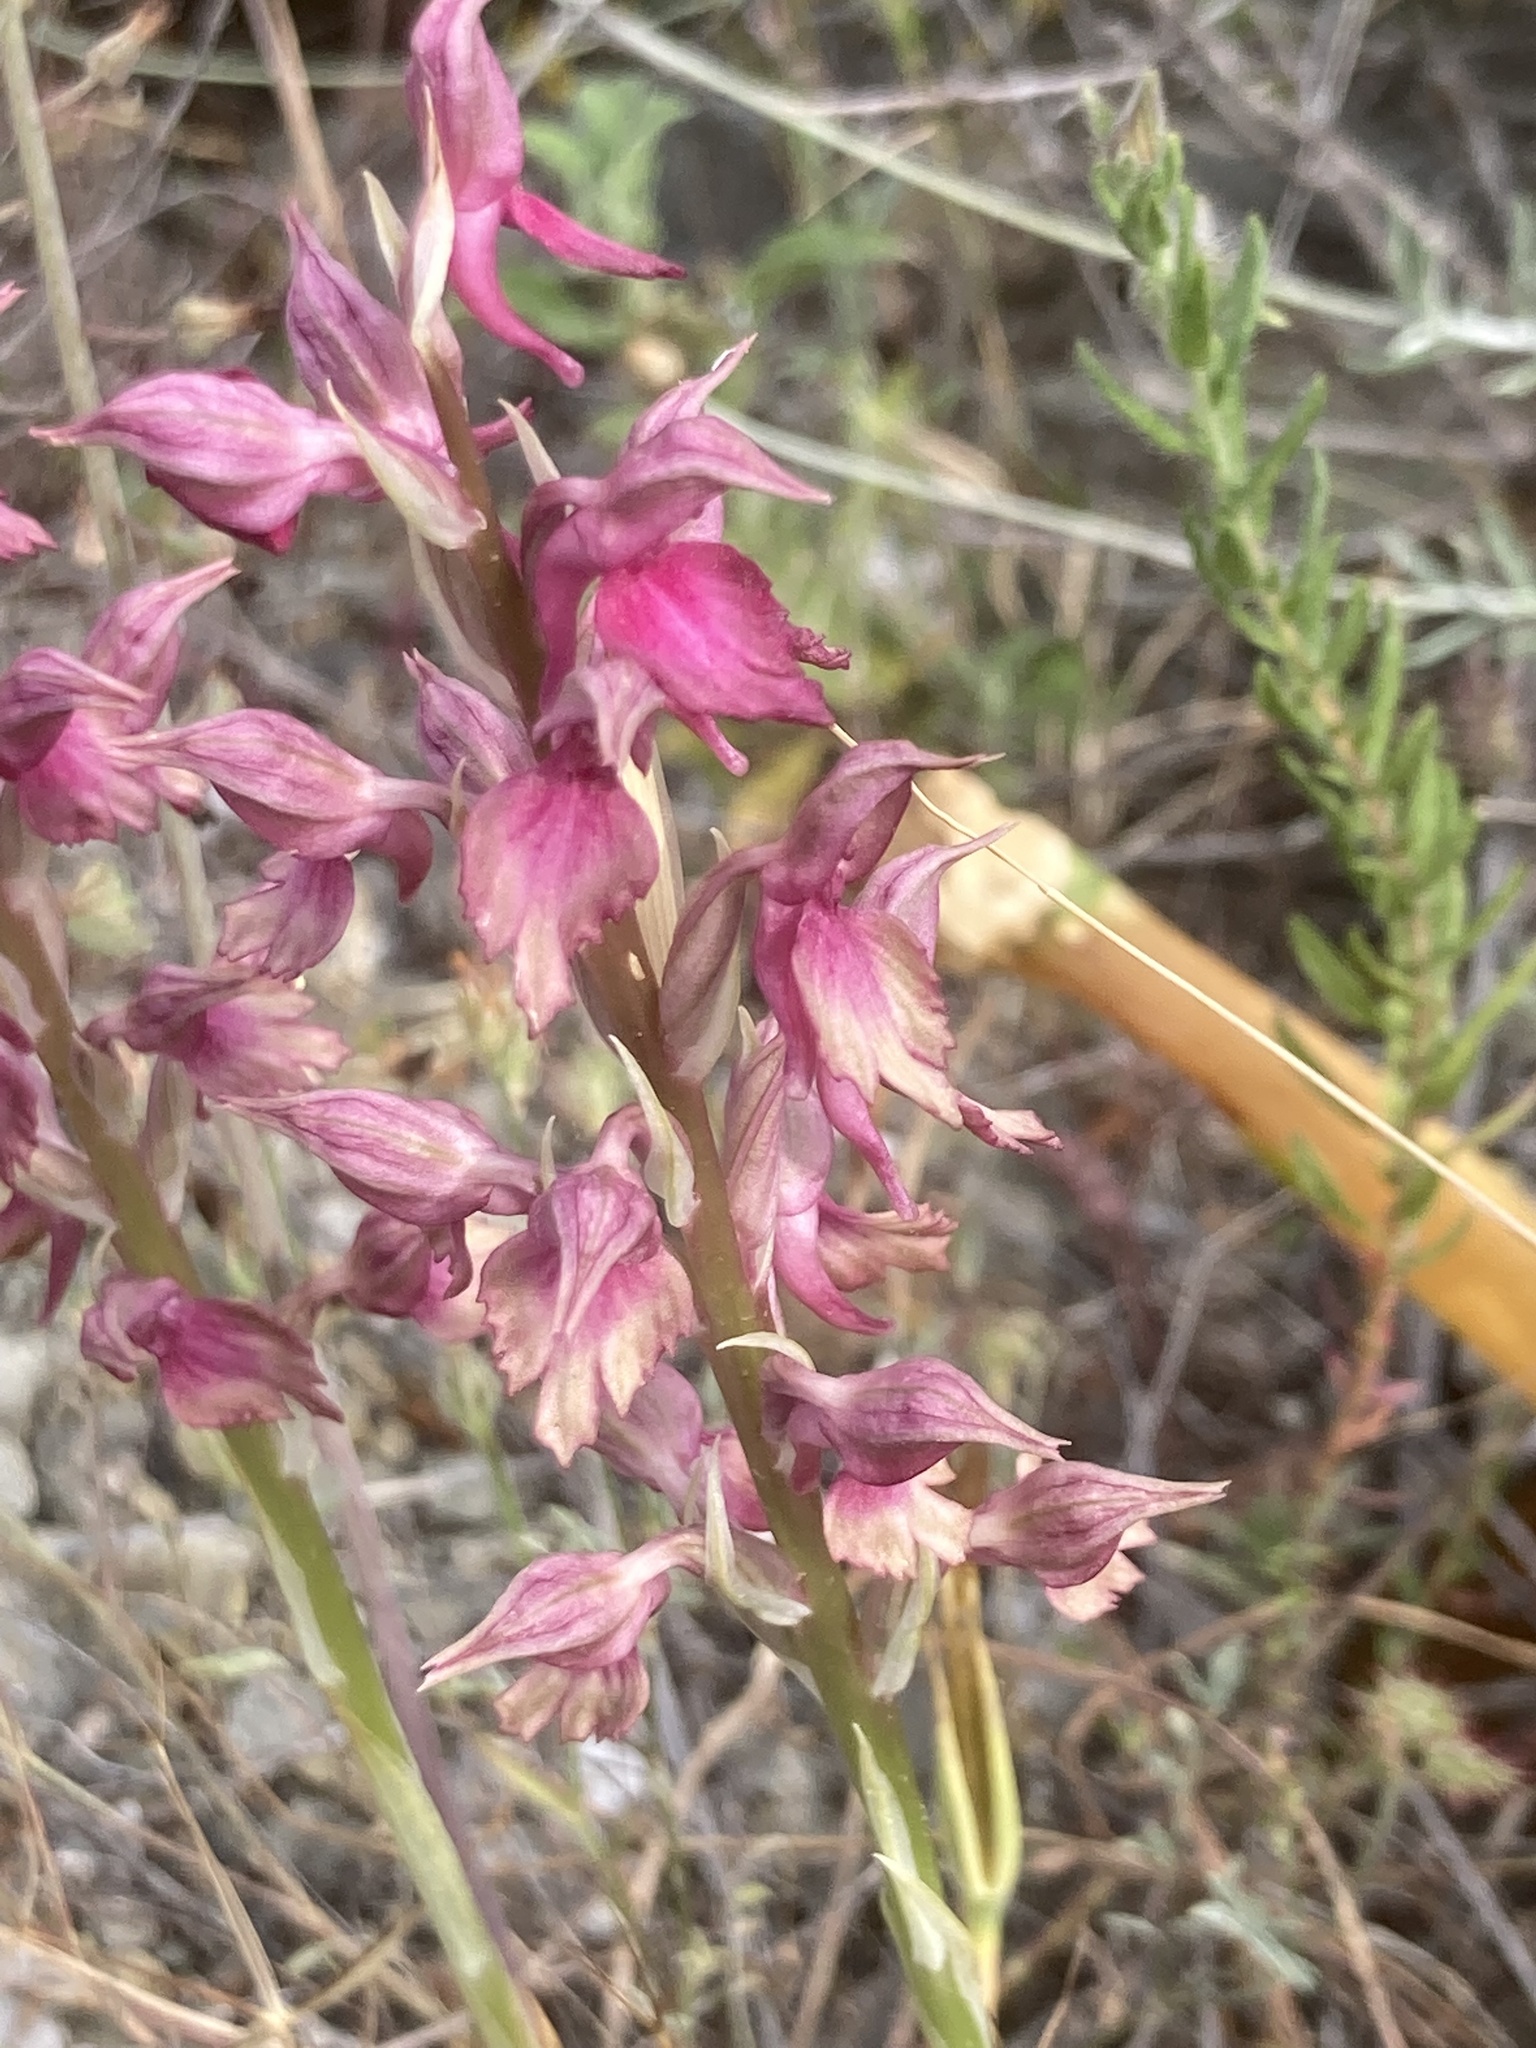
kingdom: Plantae
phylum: Tracheophyta
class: Liliopsida
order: Asparagales
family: Orchidaceae
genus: Anacamptis
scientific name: Anacamptis sancta
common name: Holy orchid
